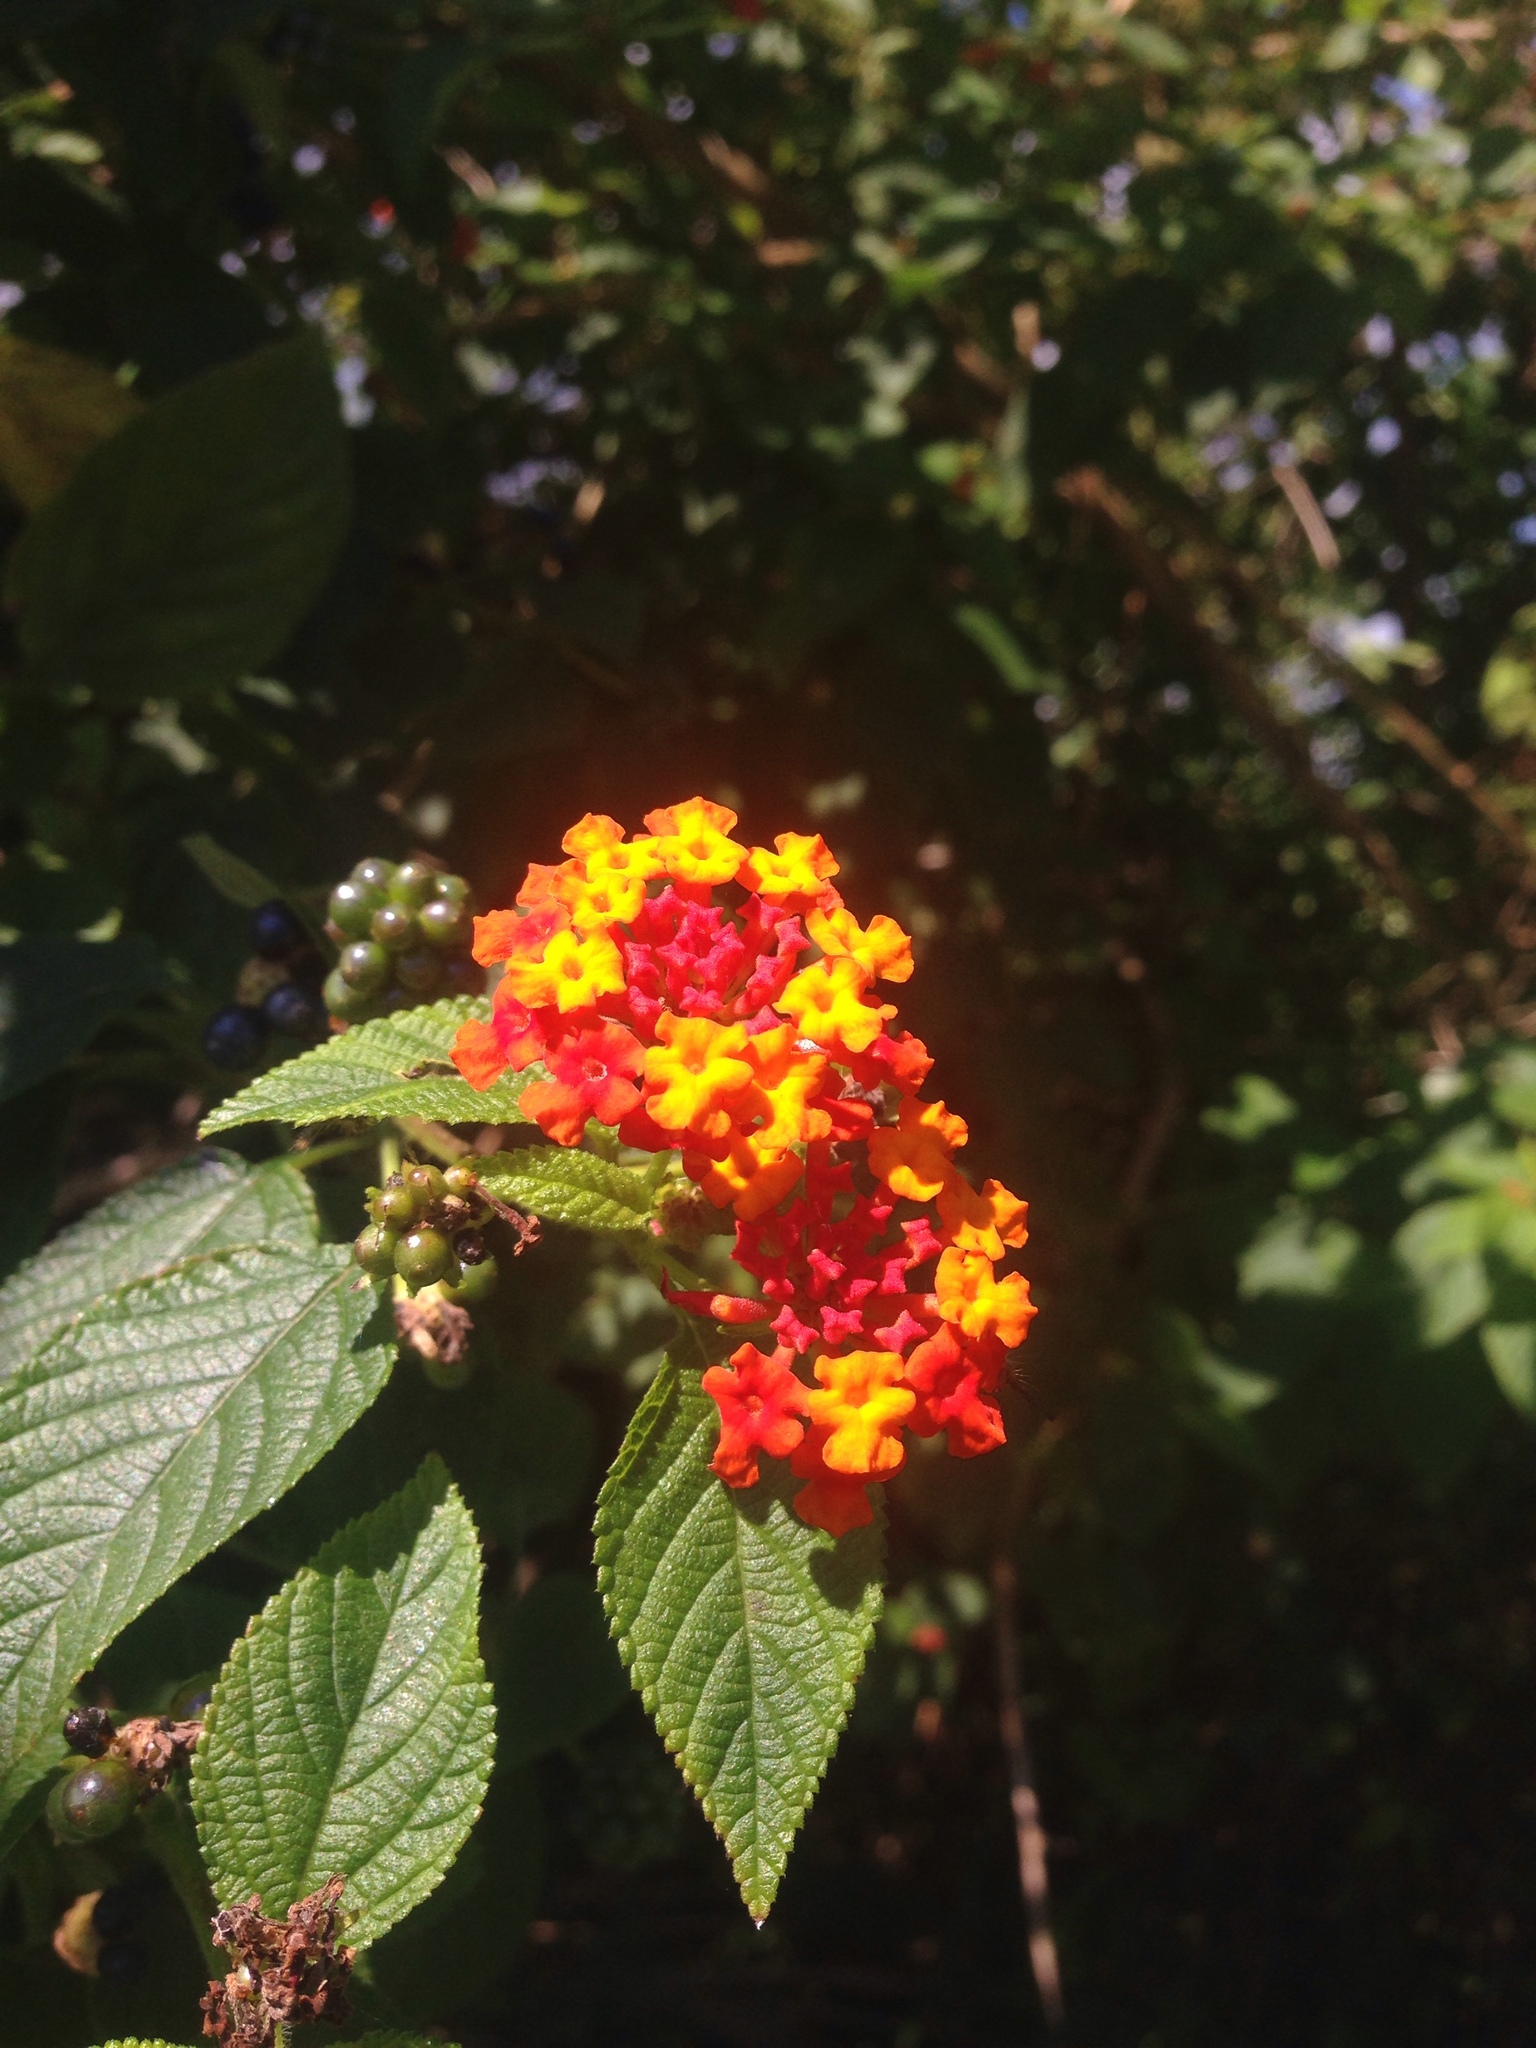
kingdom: Plantae
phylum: Tracheophyta
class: Magnoliopsida
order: Lamiales
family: Verbenaceae
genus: Lantana
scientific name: Lantana camara
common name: Lantana
